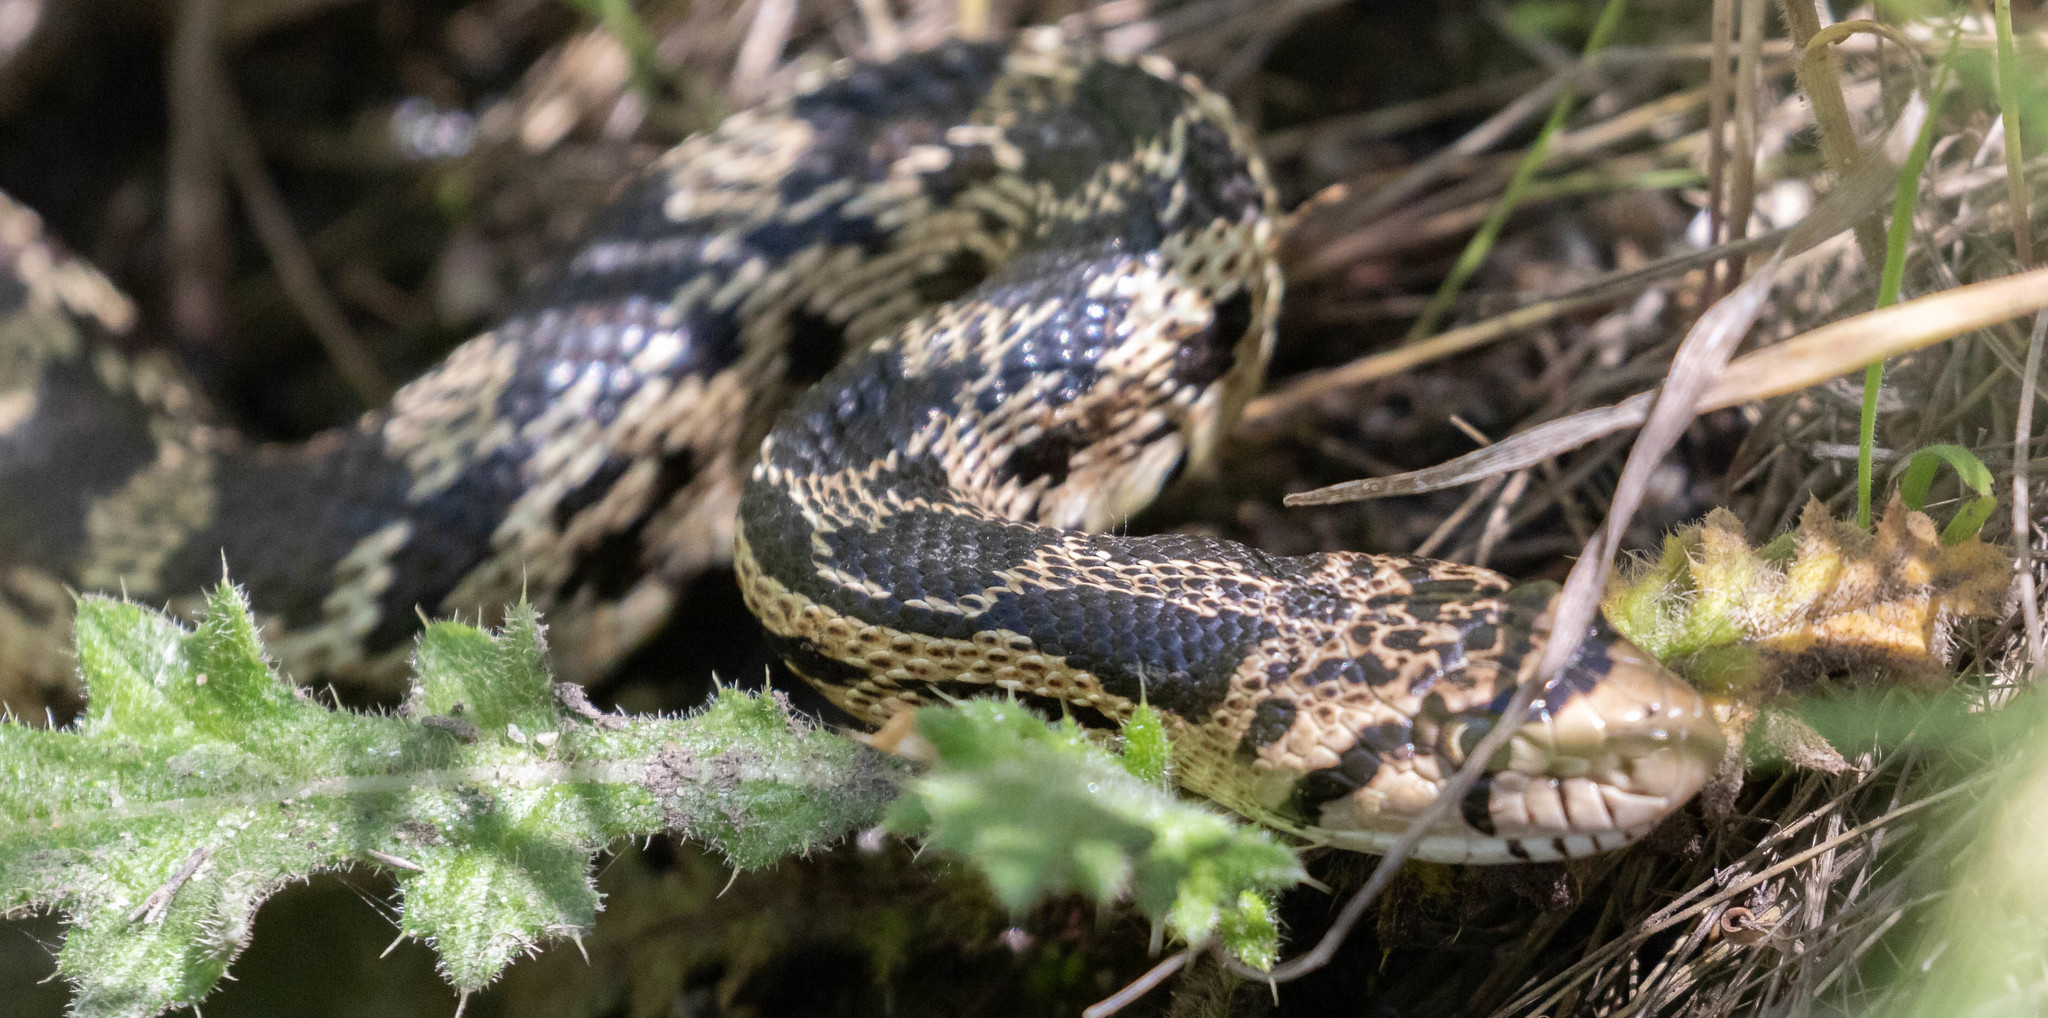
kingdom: Animalia
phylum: Chordata
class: Squamata
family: Colubridae
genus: Pituophis
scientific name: Pituophis catenifer
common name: Gopher snake
